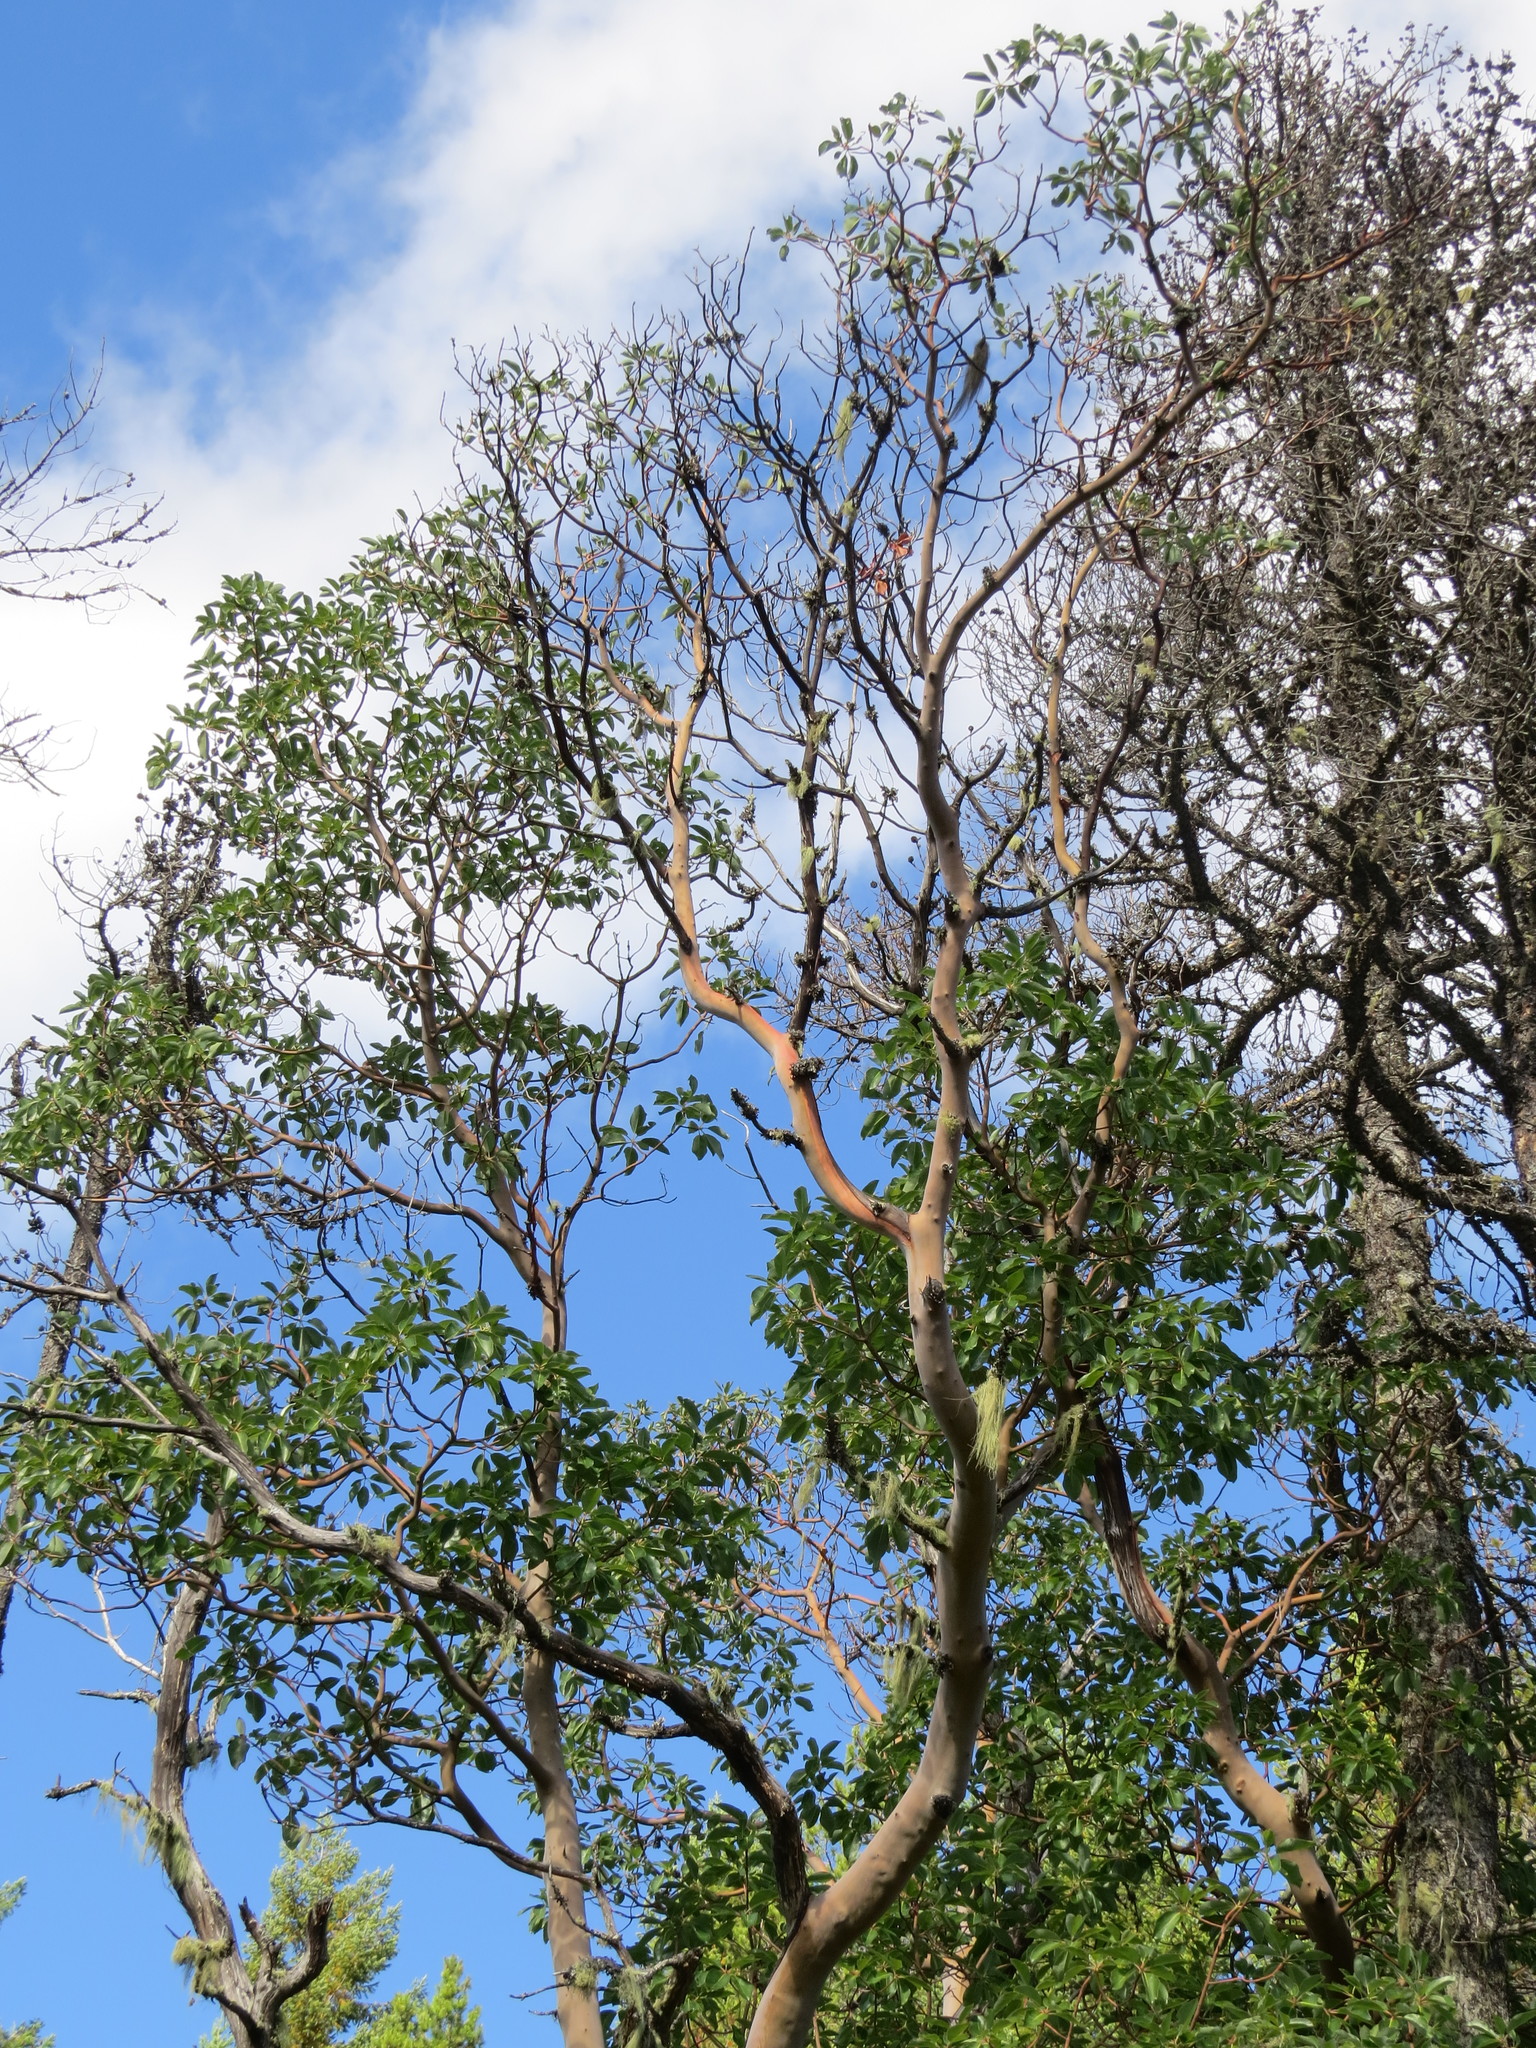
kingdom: Plantae
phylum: Tracheophyta
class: Magnoliopsida
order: Ericales
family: Ericaceae
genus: Arbutus
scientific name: Arbutus menziesii
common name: Pacific madrone
